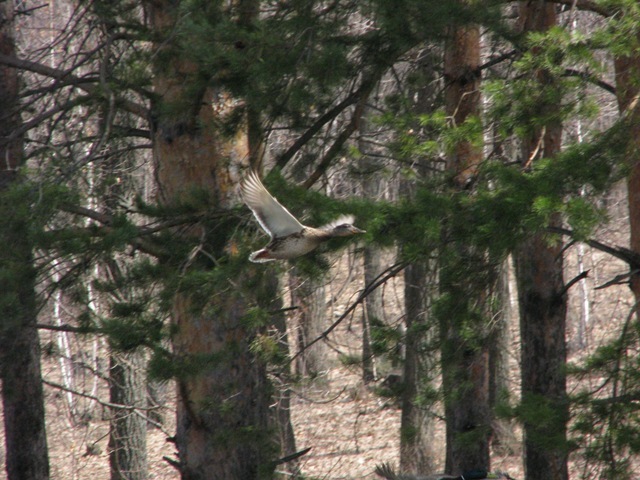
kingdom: Animalia
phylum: Chordata
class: Aves
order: Anseriformes
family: Anatidae
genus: Anas
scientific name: Anas platyrhynchos
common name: Mallard
